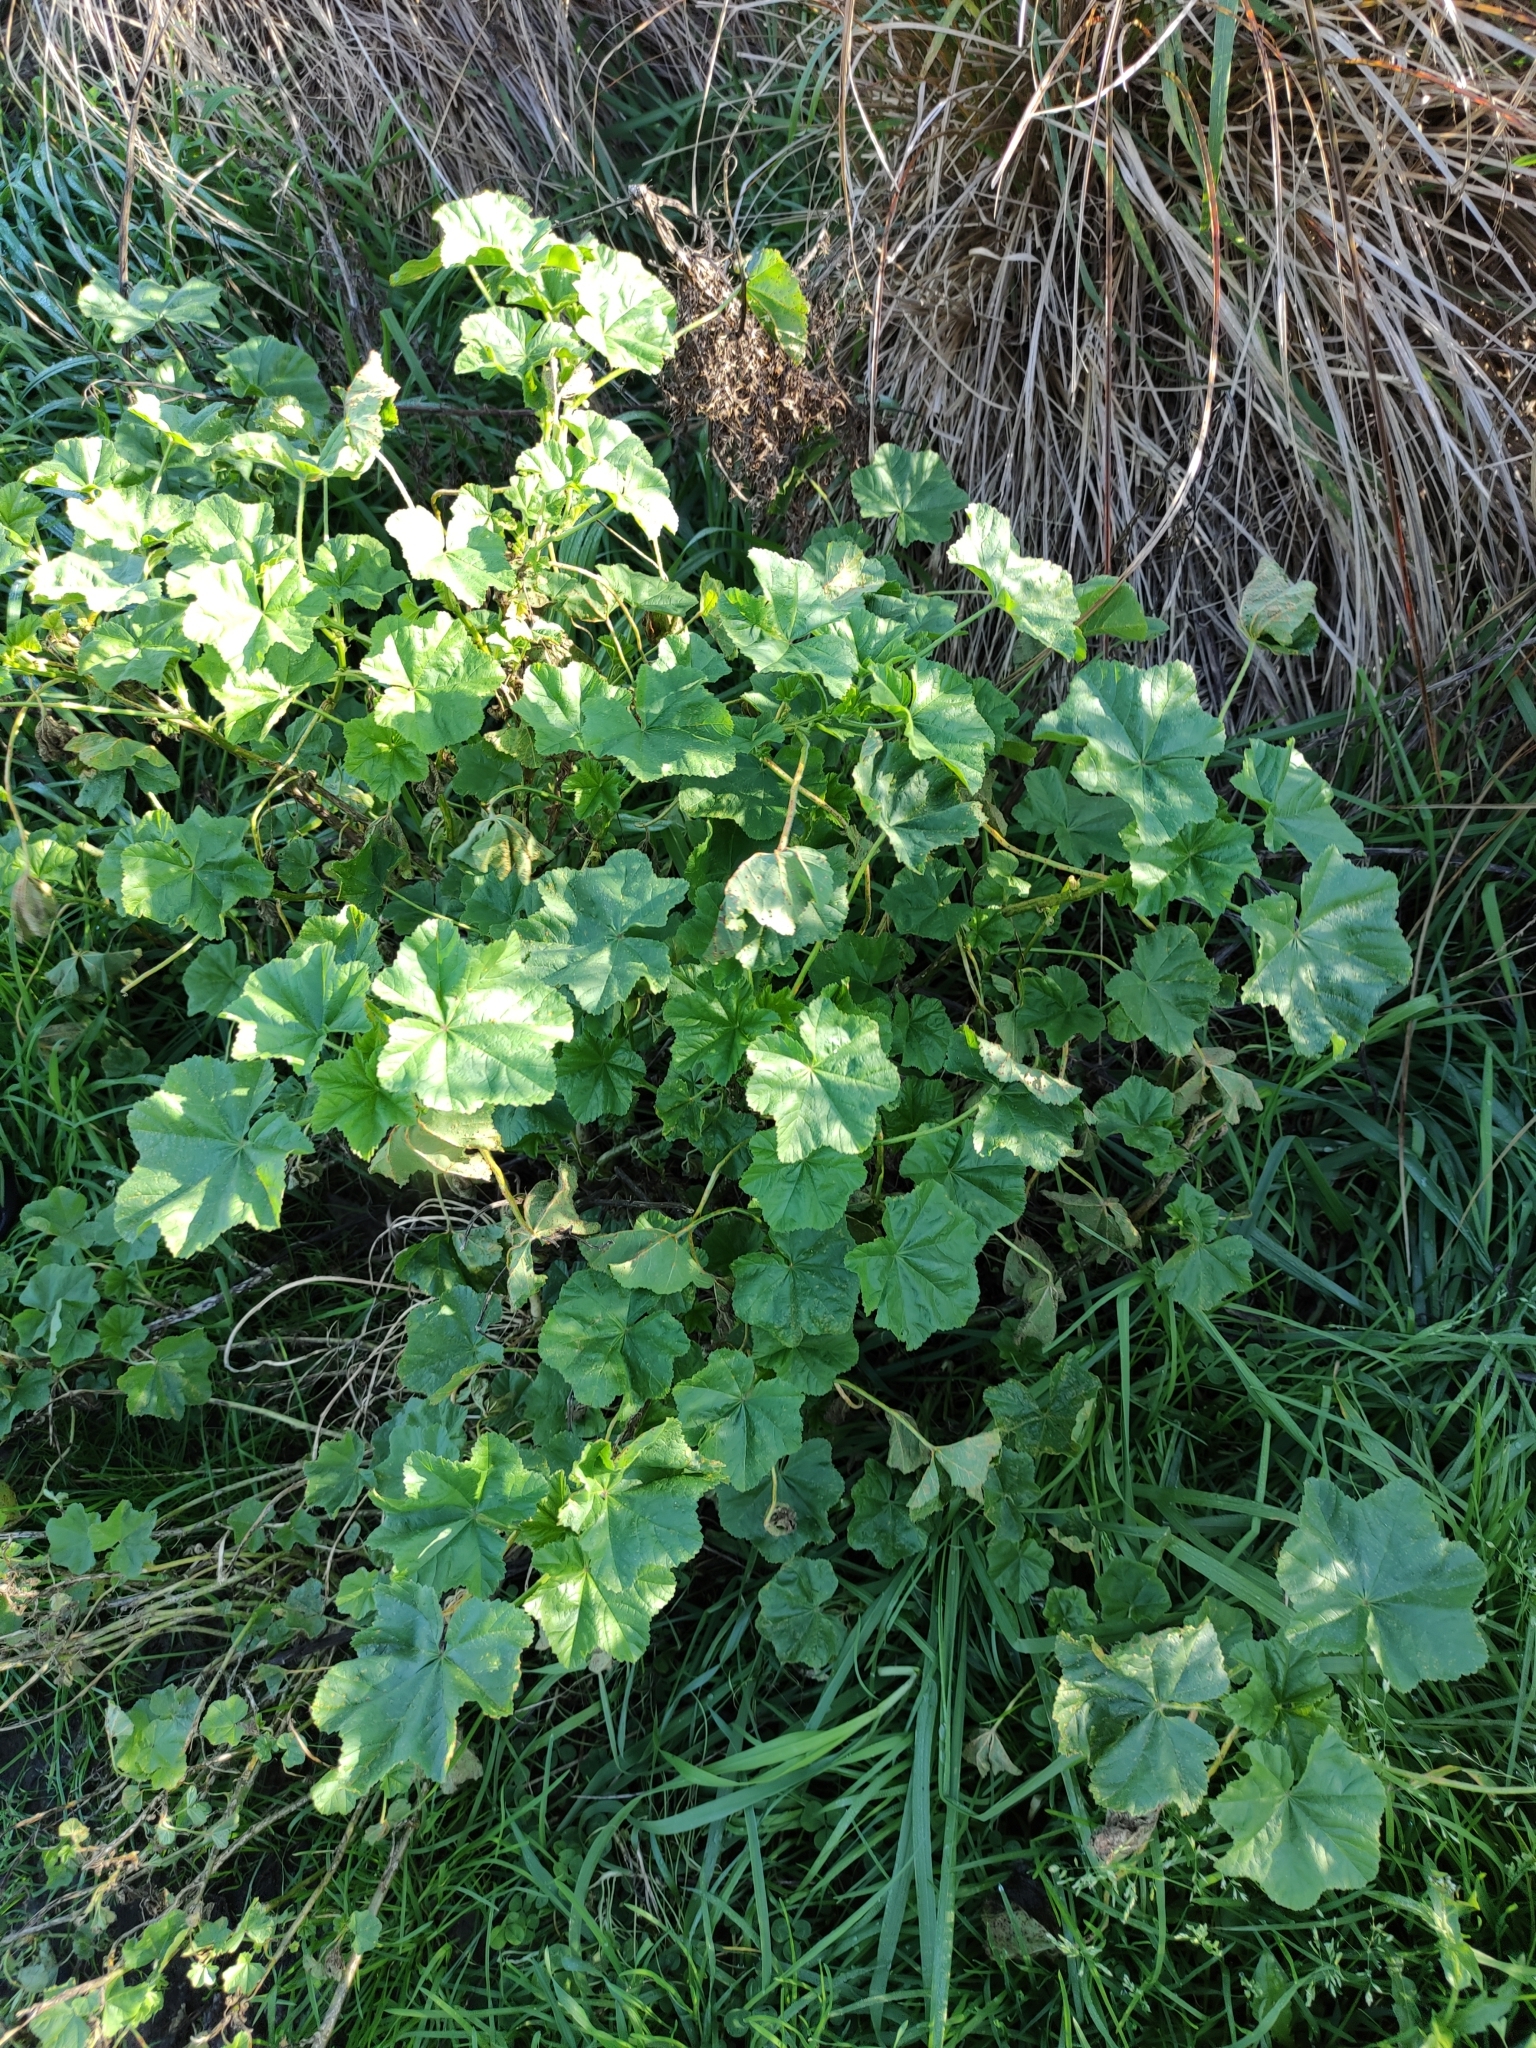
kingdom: Plantae
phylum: Tracheophyta
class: Magnoliopsida
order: Malvales
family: Malvaceae
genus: Malva
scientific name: Malva arborea
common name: Tree mallow
